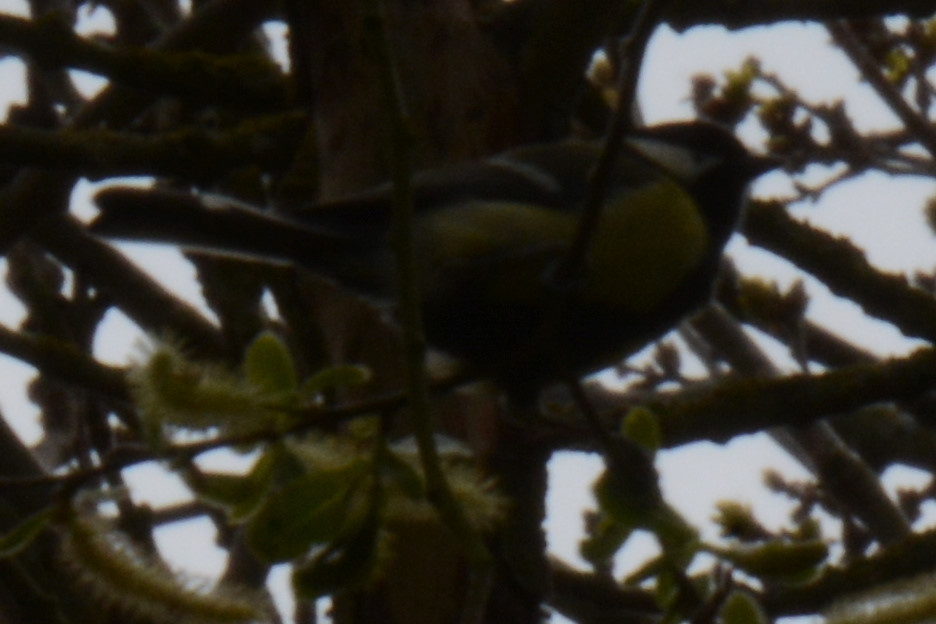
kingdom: Animalia
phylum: Chordata
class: Aves
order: Passeriformes
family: Paridae
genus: Parus
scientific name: Parus major
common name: Great tit
